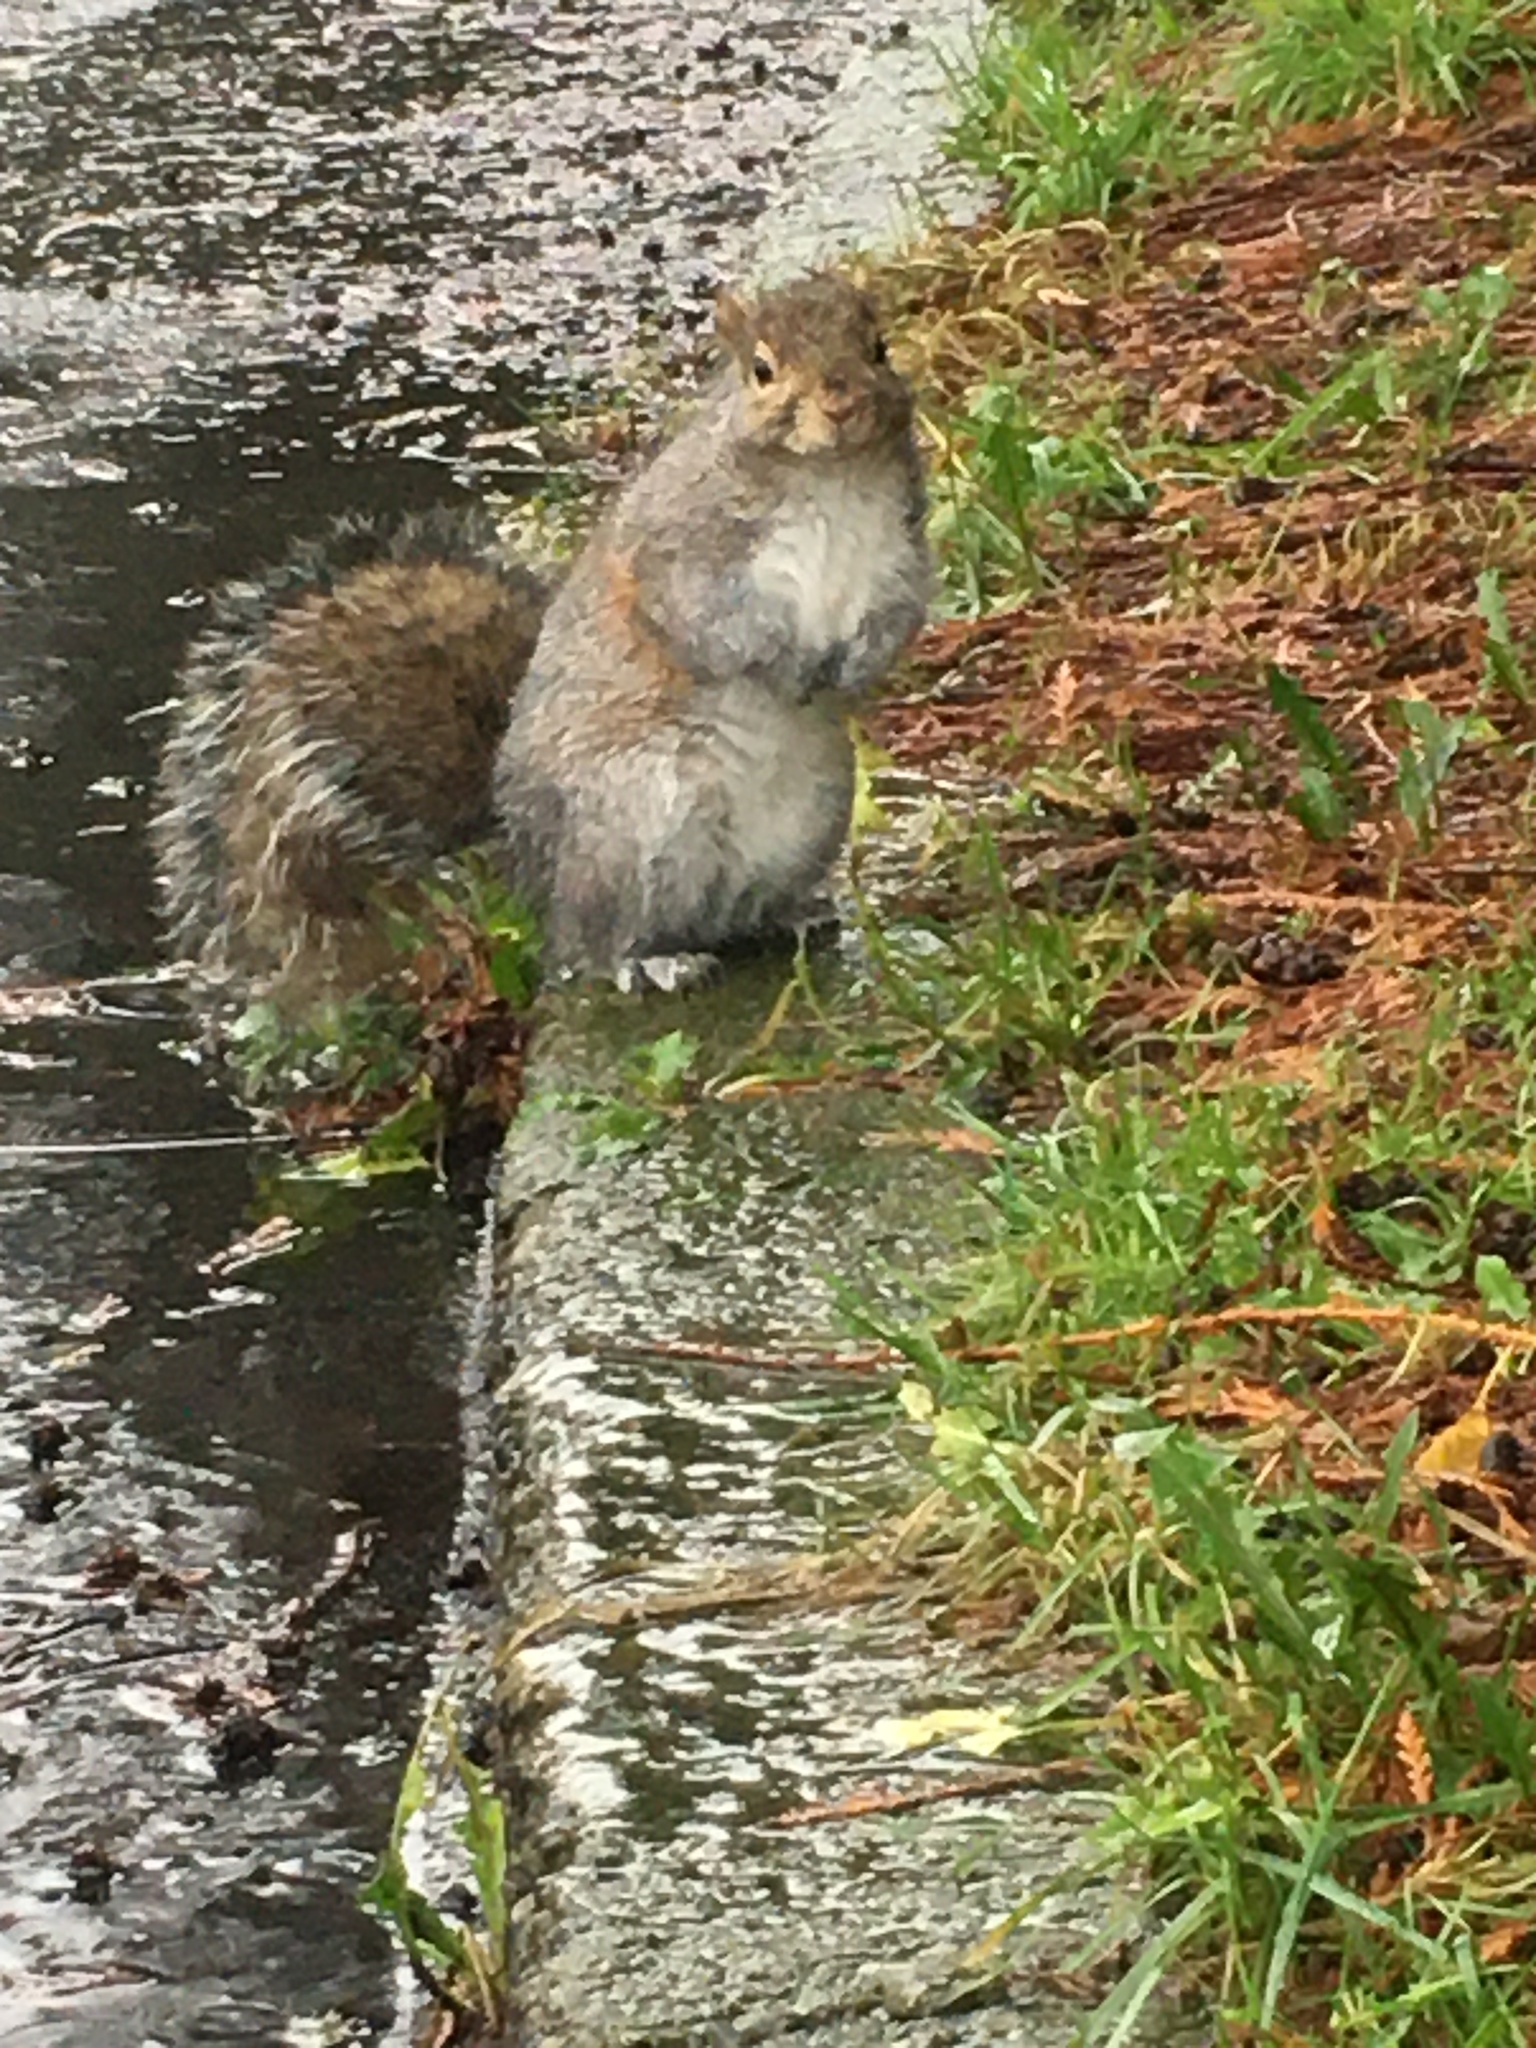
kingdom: Animalia
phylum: Chordata
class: Mammalia
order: Rodentia
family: Sciuridae
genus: Sciurus
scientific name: Sciurus carolinensis
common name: Eastern gray squirrel
